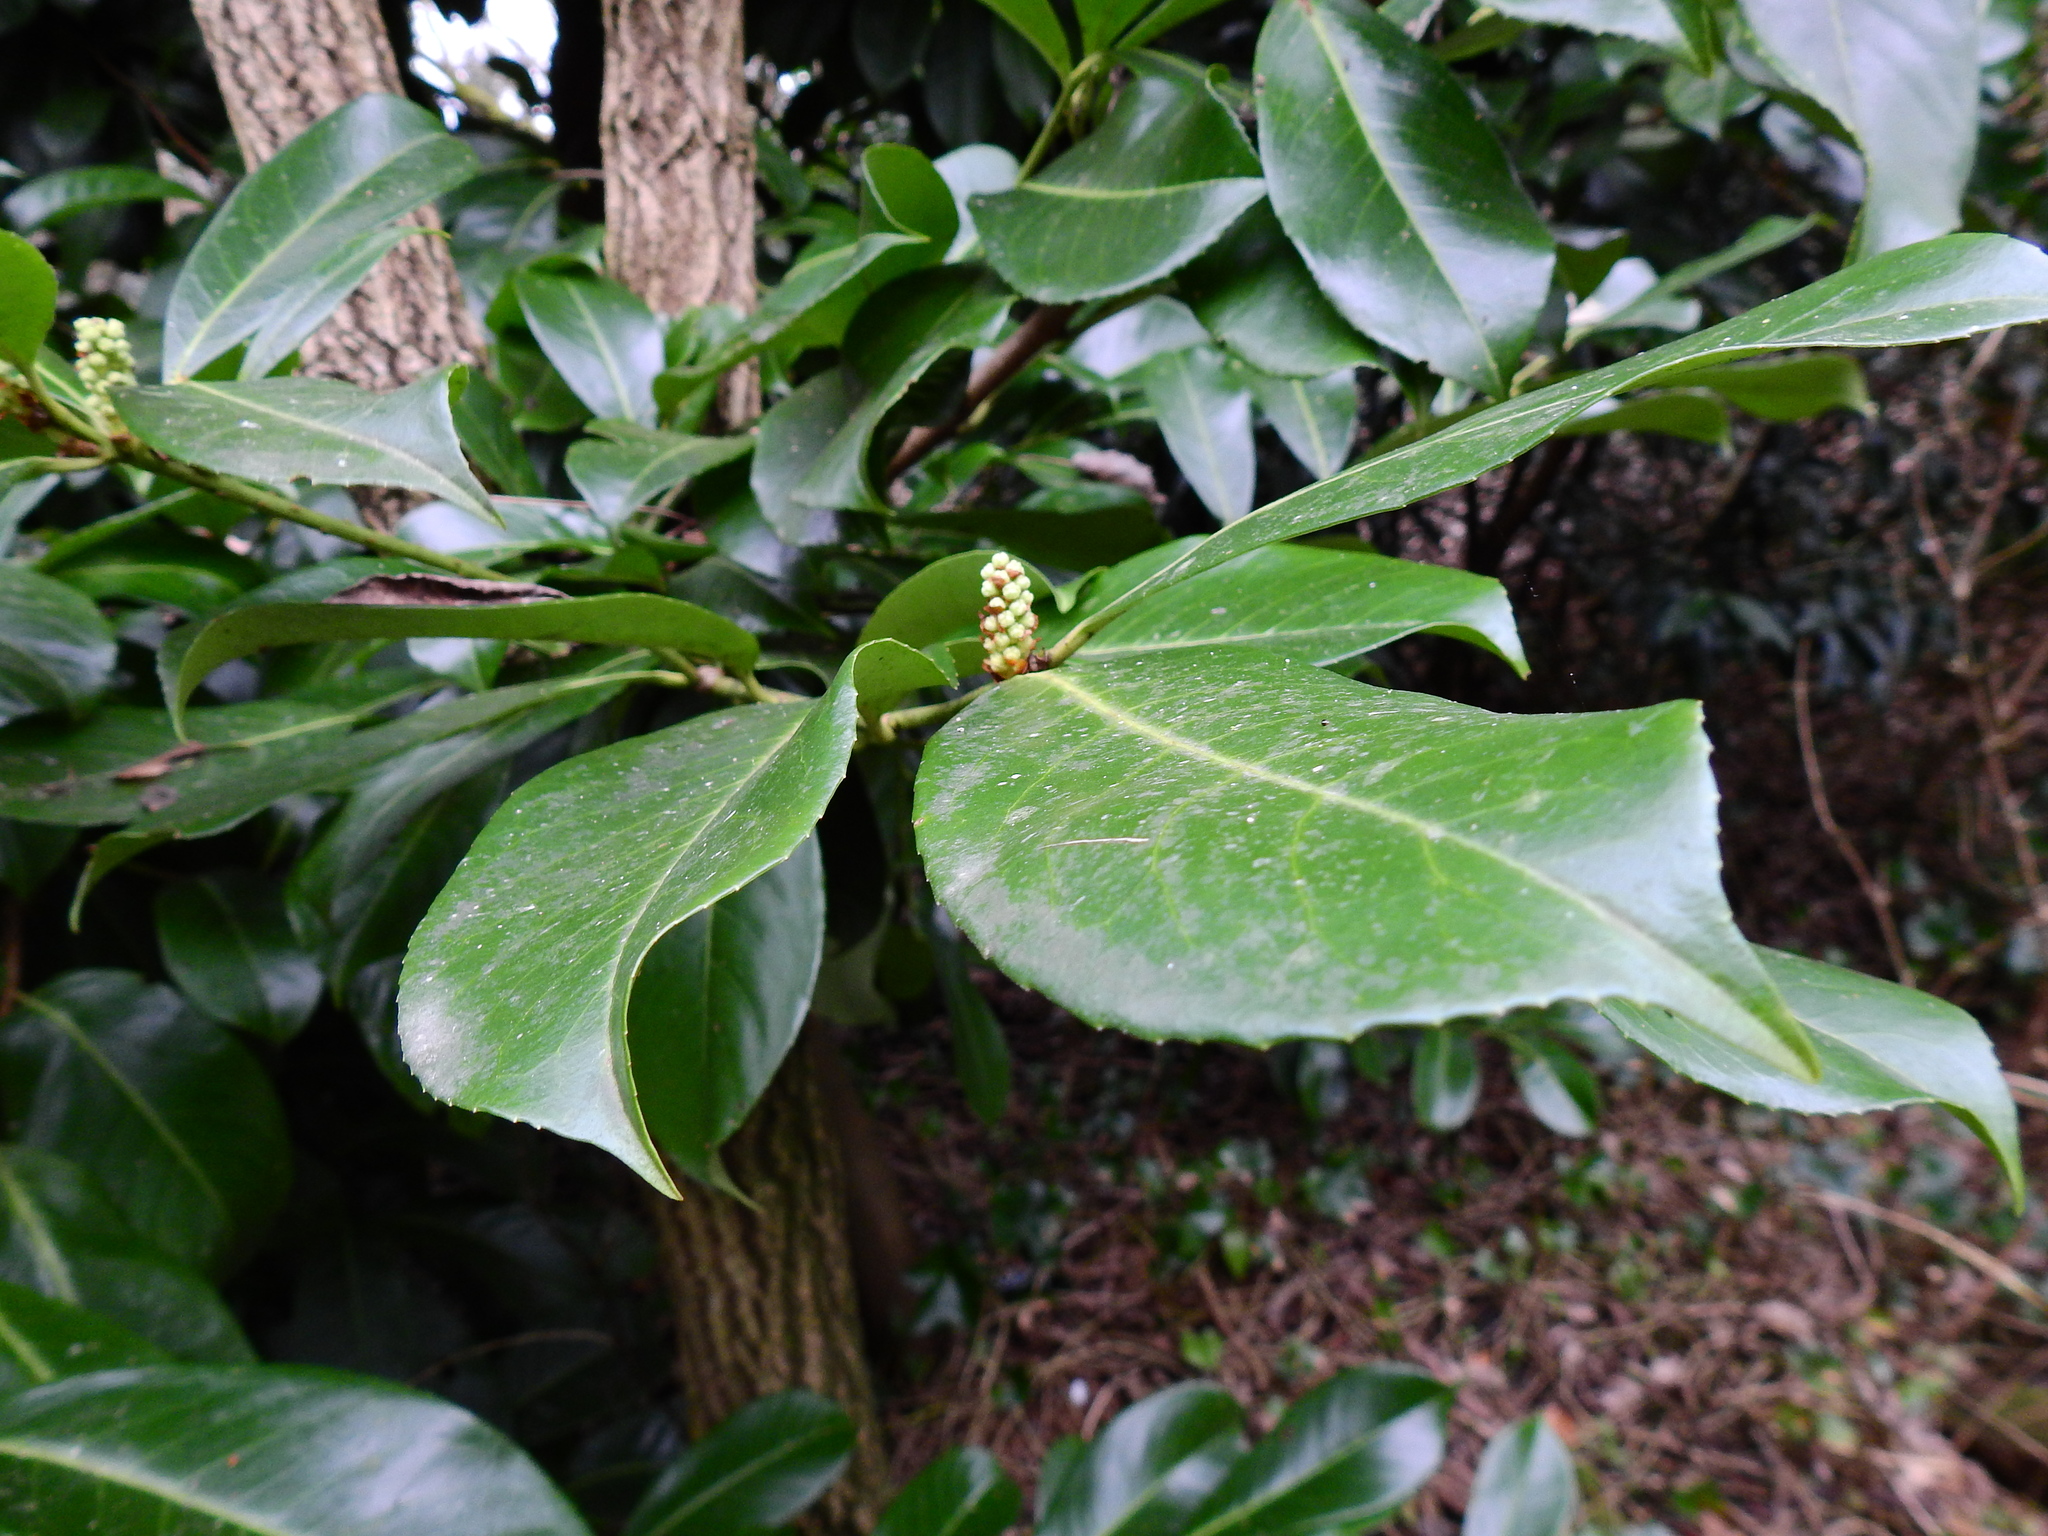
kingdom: Plantae
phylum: Tracheophyta
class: Magnoliopsida
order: Rosales
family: Rosaceae
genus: Prunus
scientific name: Prunus laurocerasus
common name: Cherry laurel
